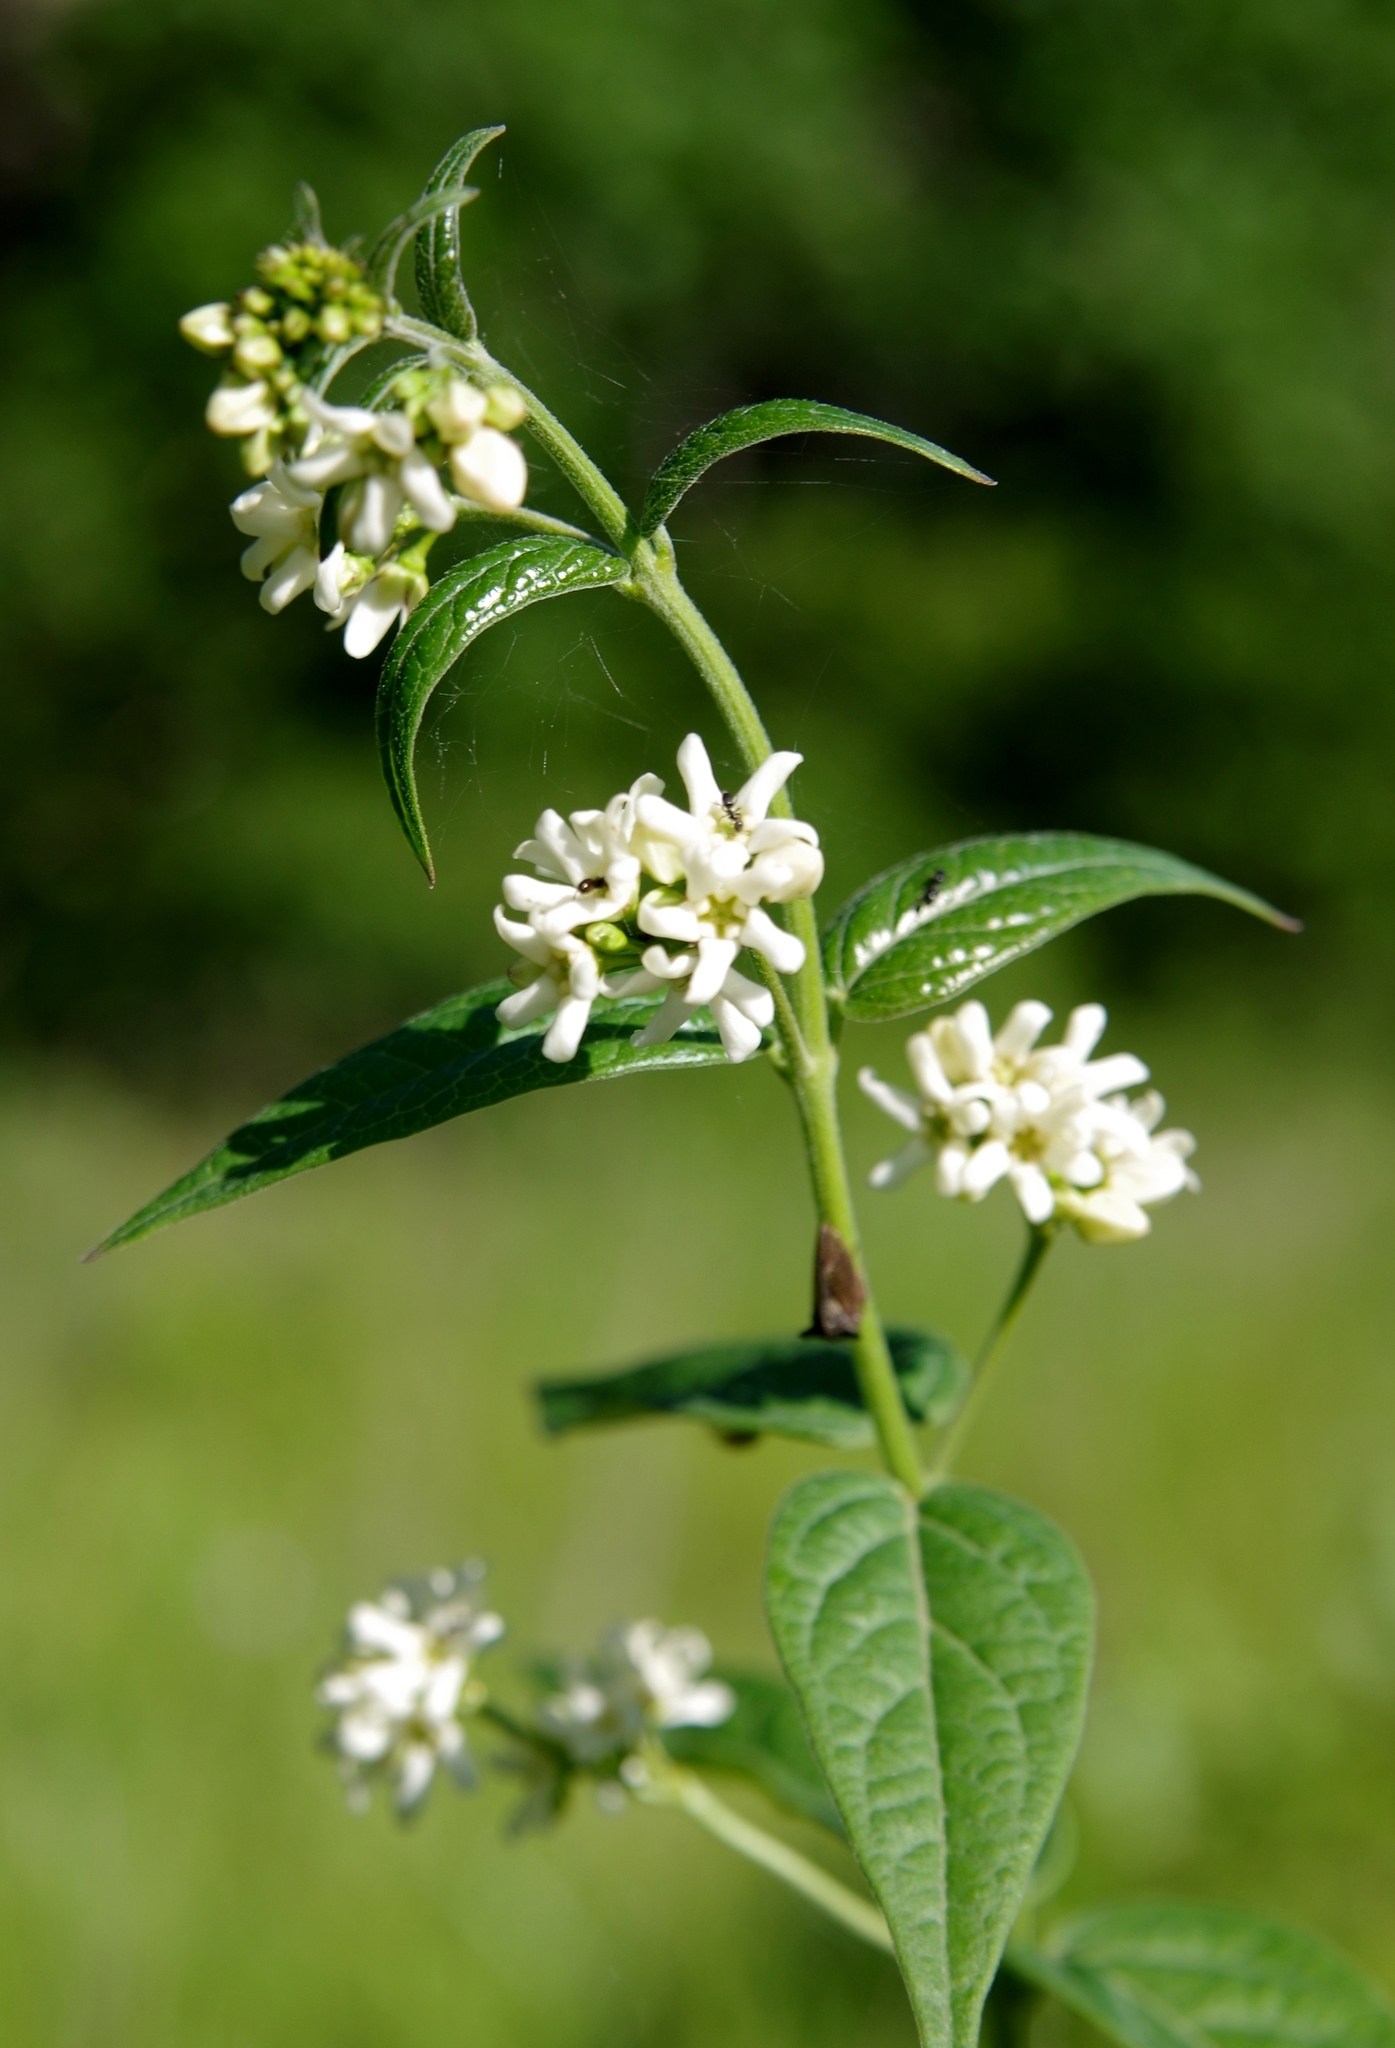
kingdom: Plantae
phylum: Tracheophyta
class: Magnoliopsida
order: Gentianales
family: Apocynaceae
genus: Vincetoxicum
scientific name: Vincetoxicum hirundinaria
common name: White swallowwort
